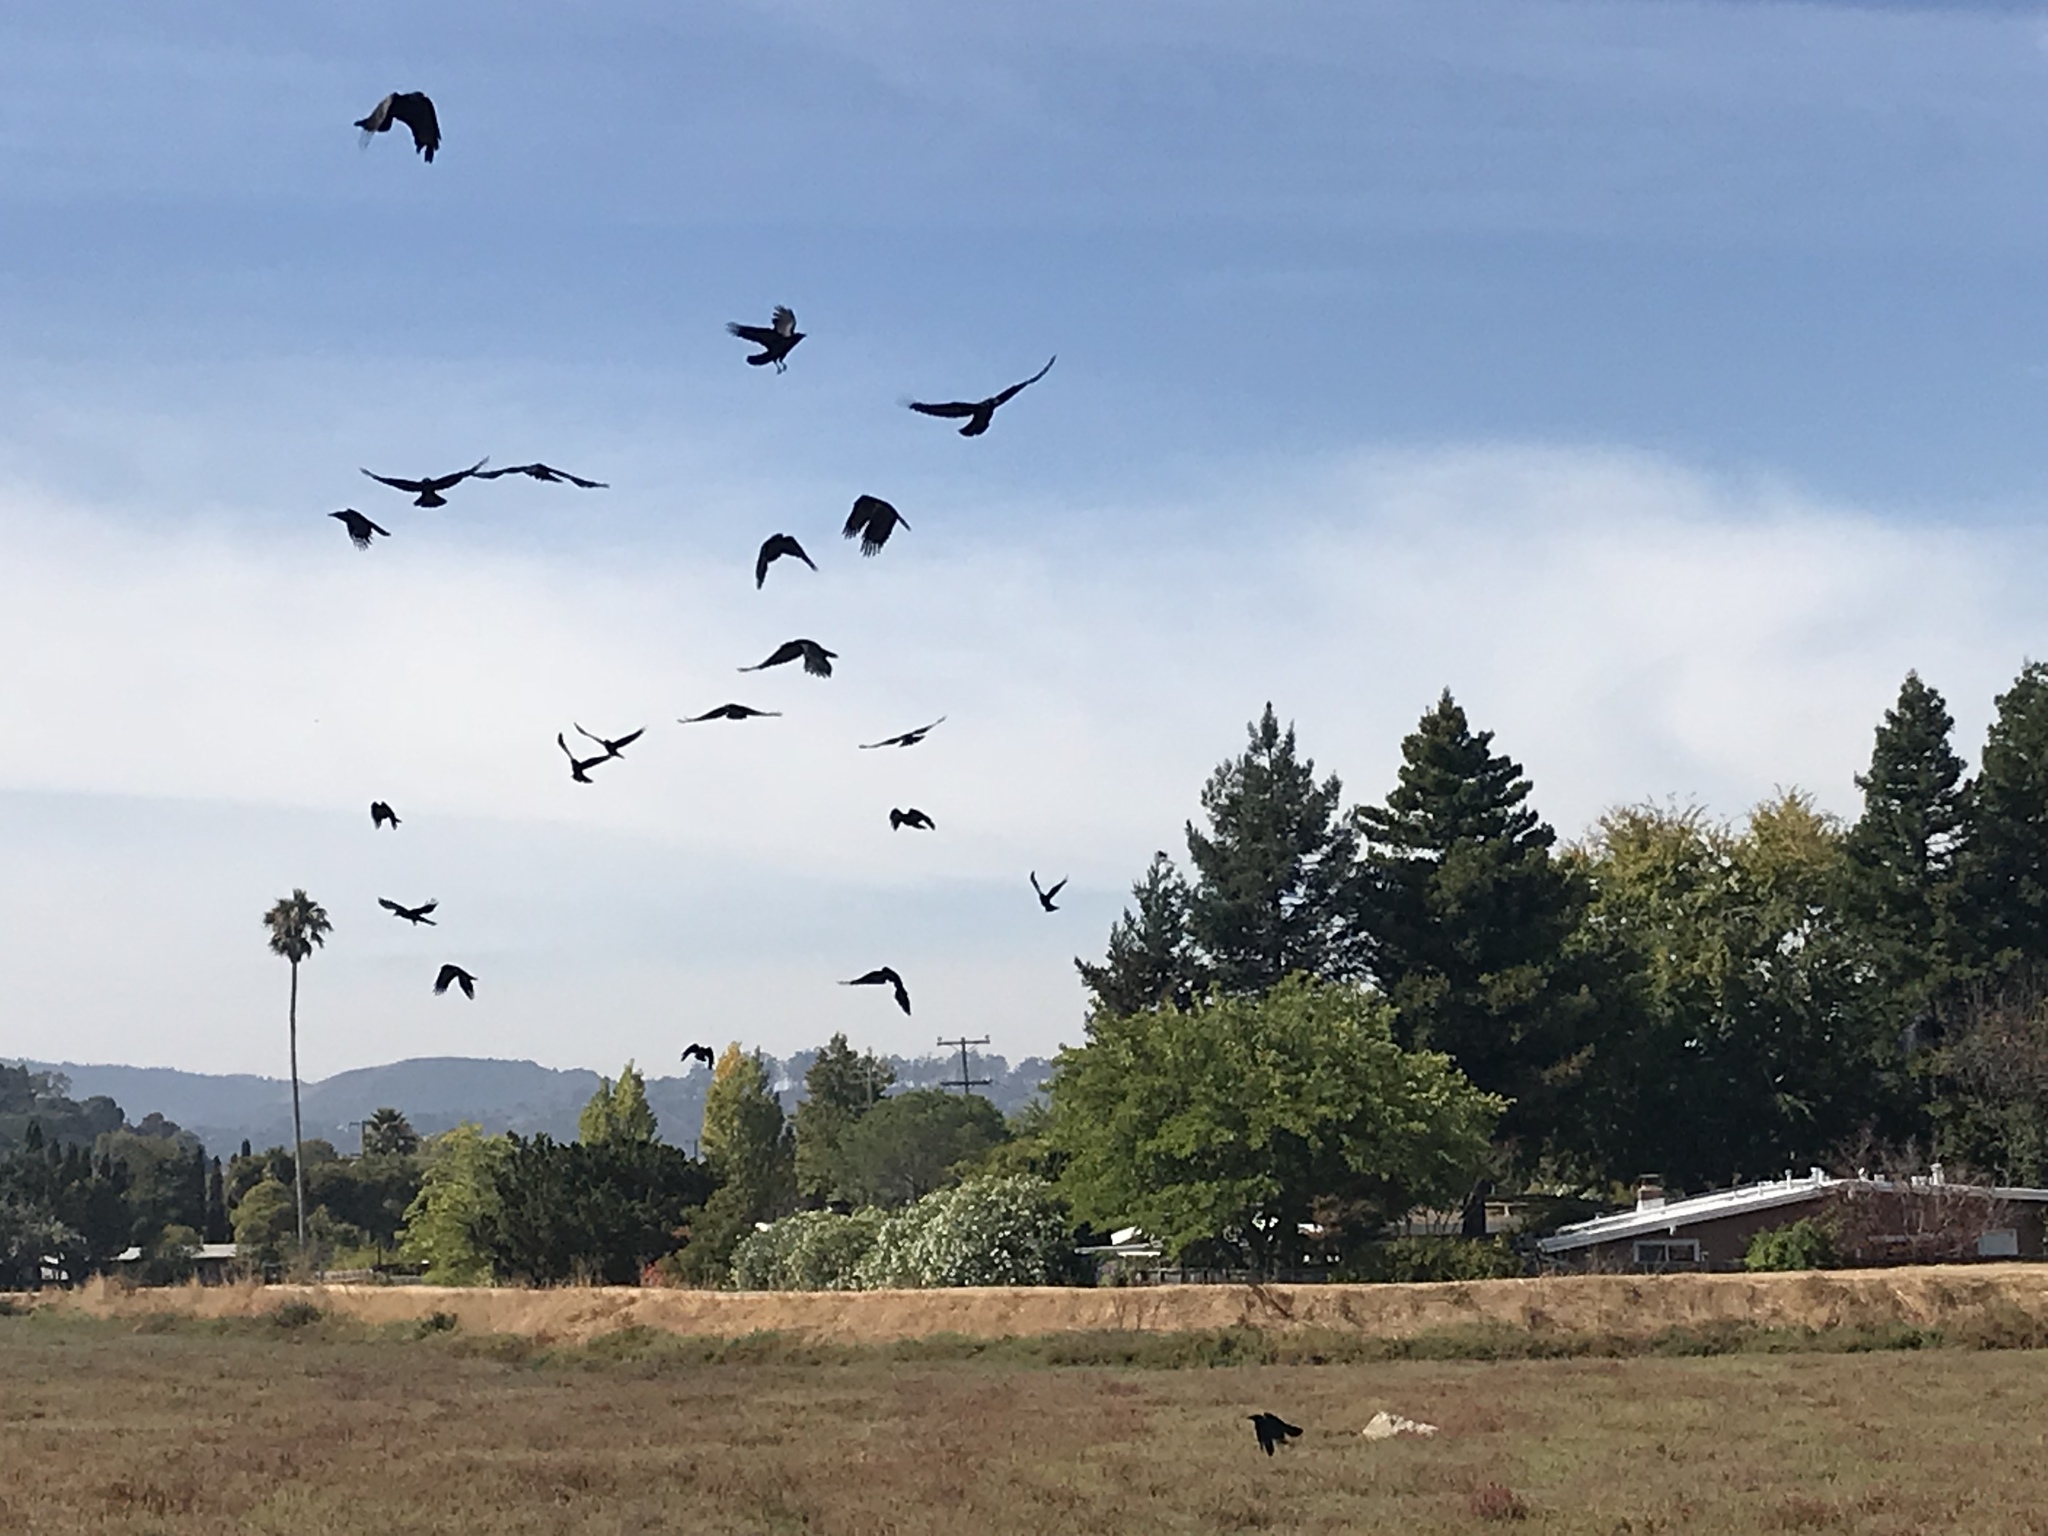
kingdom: Animalia
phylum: Chordata
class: Aves
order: Passeriformes
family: Corvidae
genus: Corvus
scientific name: Corvus brachyrhynchos
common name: American crow
